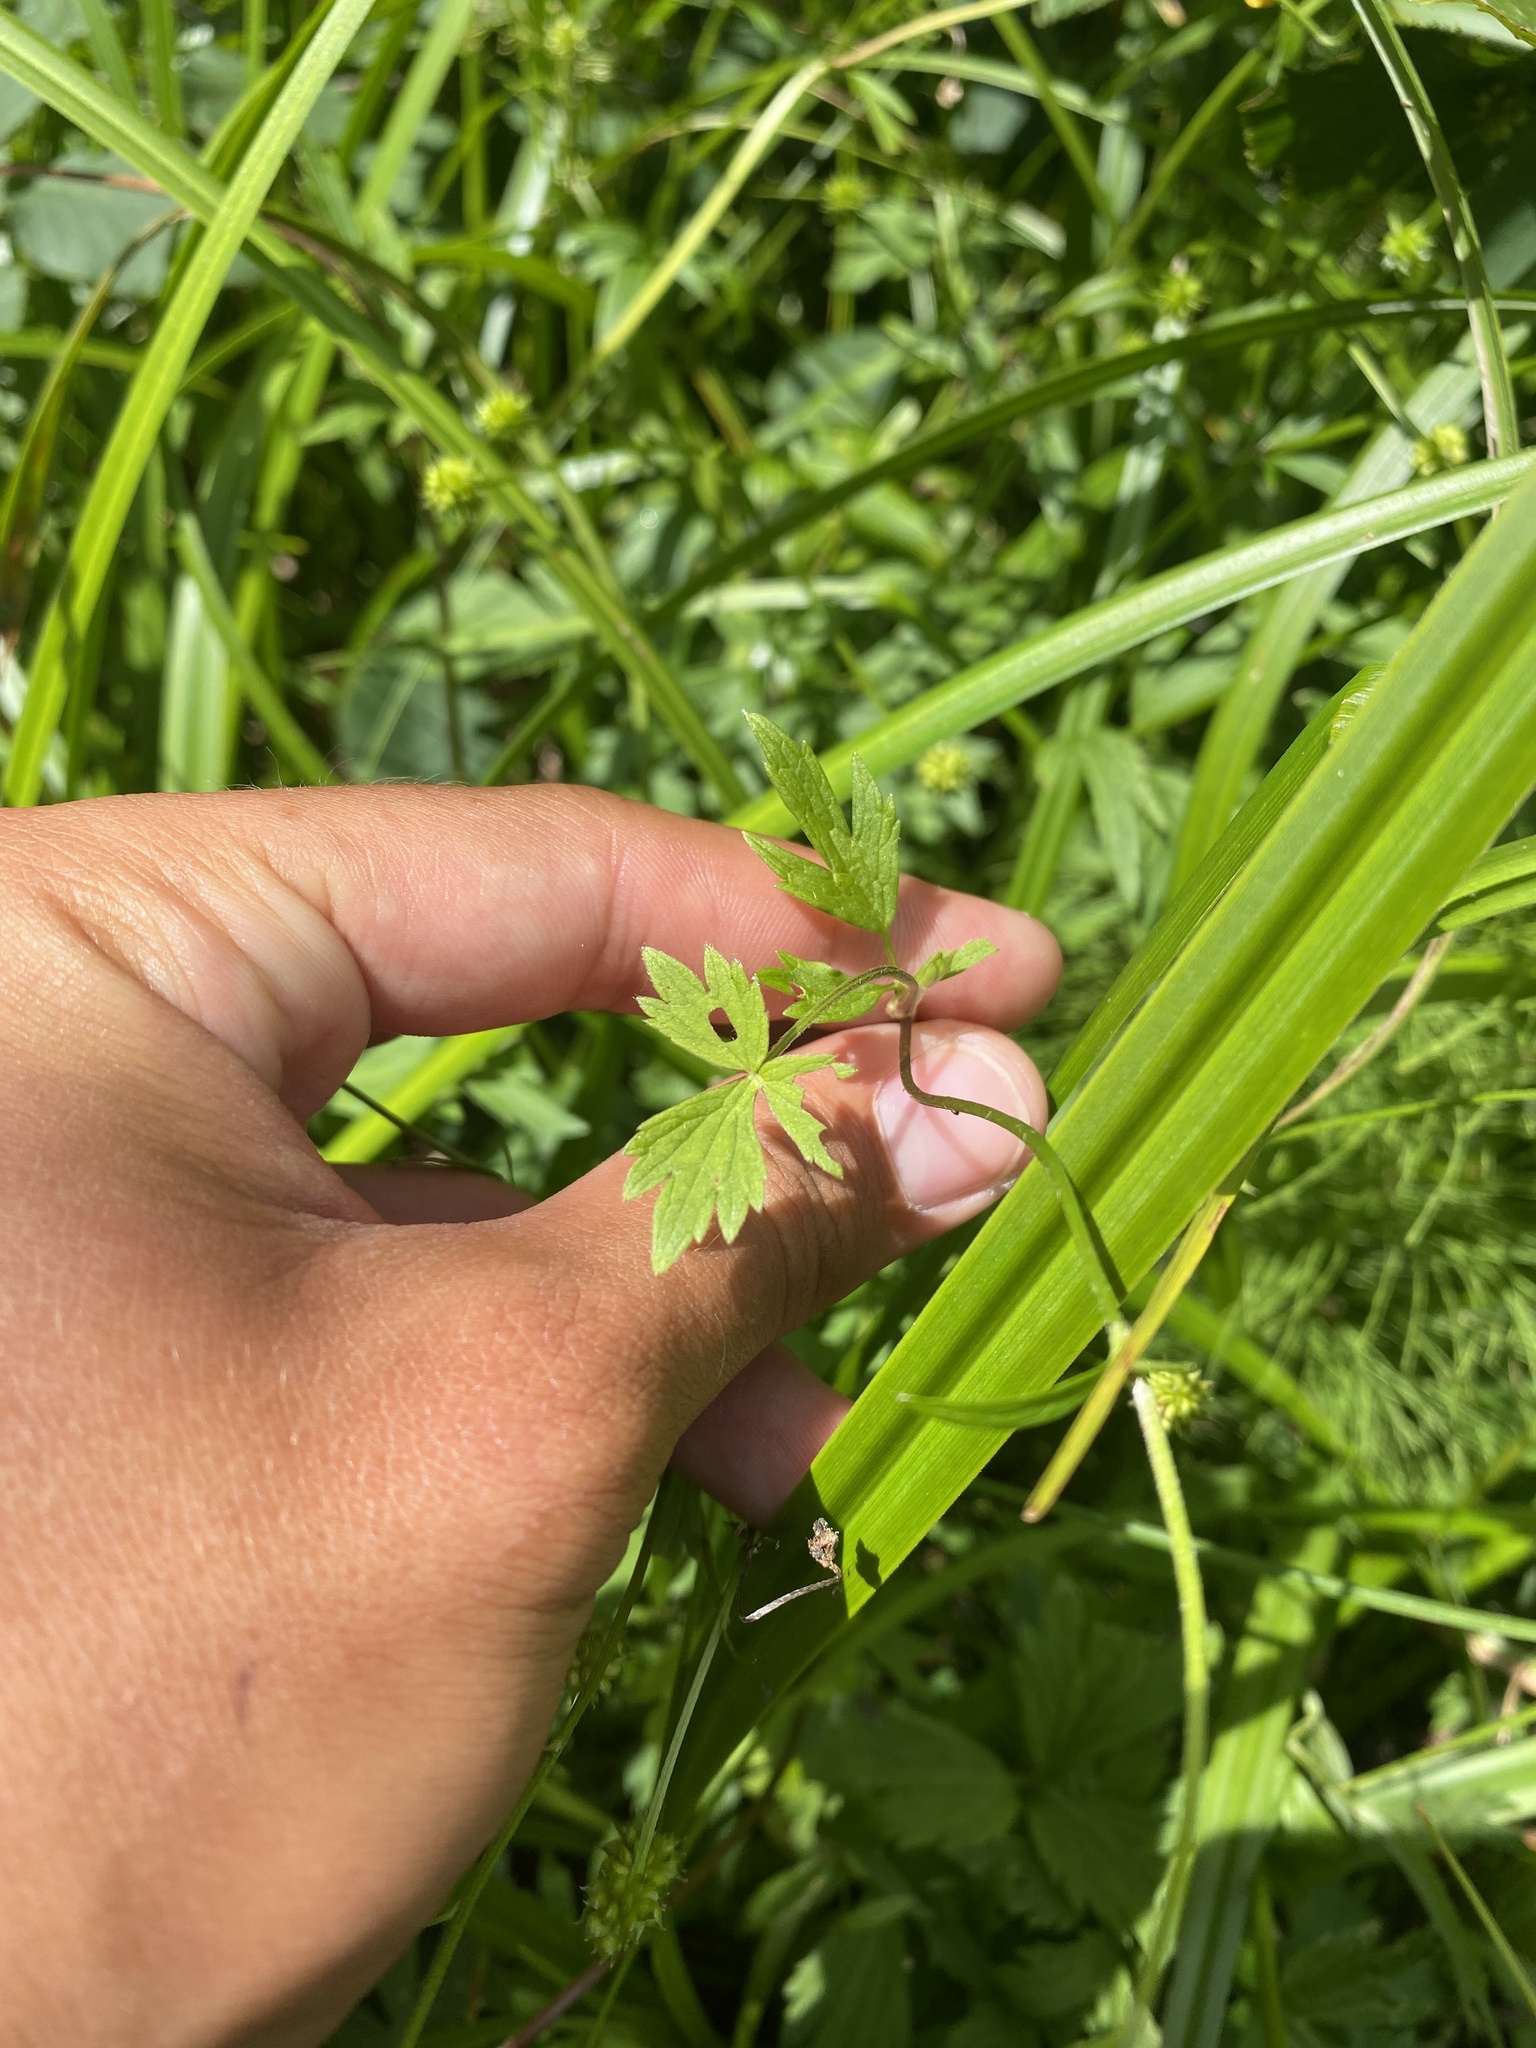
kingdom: Plantae
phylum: Tracheophyta
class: Magnoliopsida
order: Ranunculales
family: Ranunculaceae
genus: Ranunculus
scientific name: Ranunculus repens
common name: Creeping buttercup
